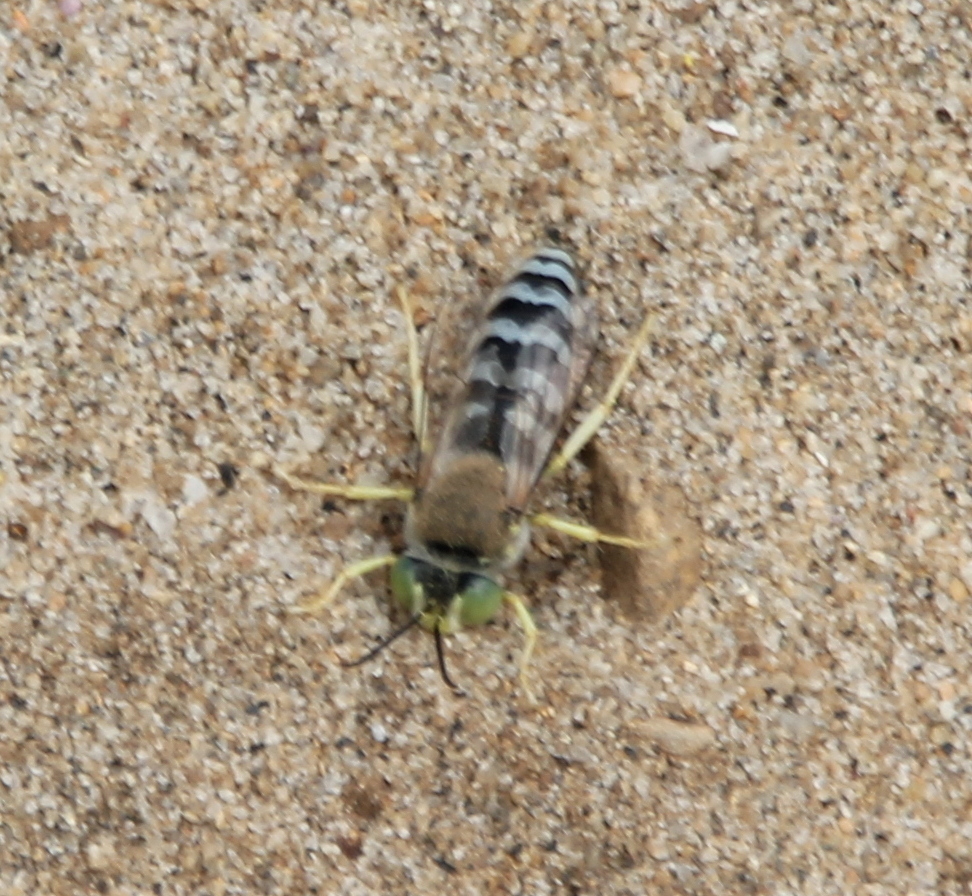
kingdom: Animalia
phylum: Arthropoda
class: Insecta
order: Hymenoptera
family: Crabronidae
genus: Bembix
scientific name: Bembix americana
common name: American sand wasp
